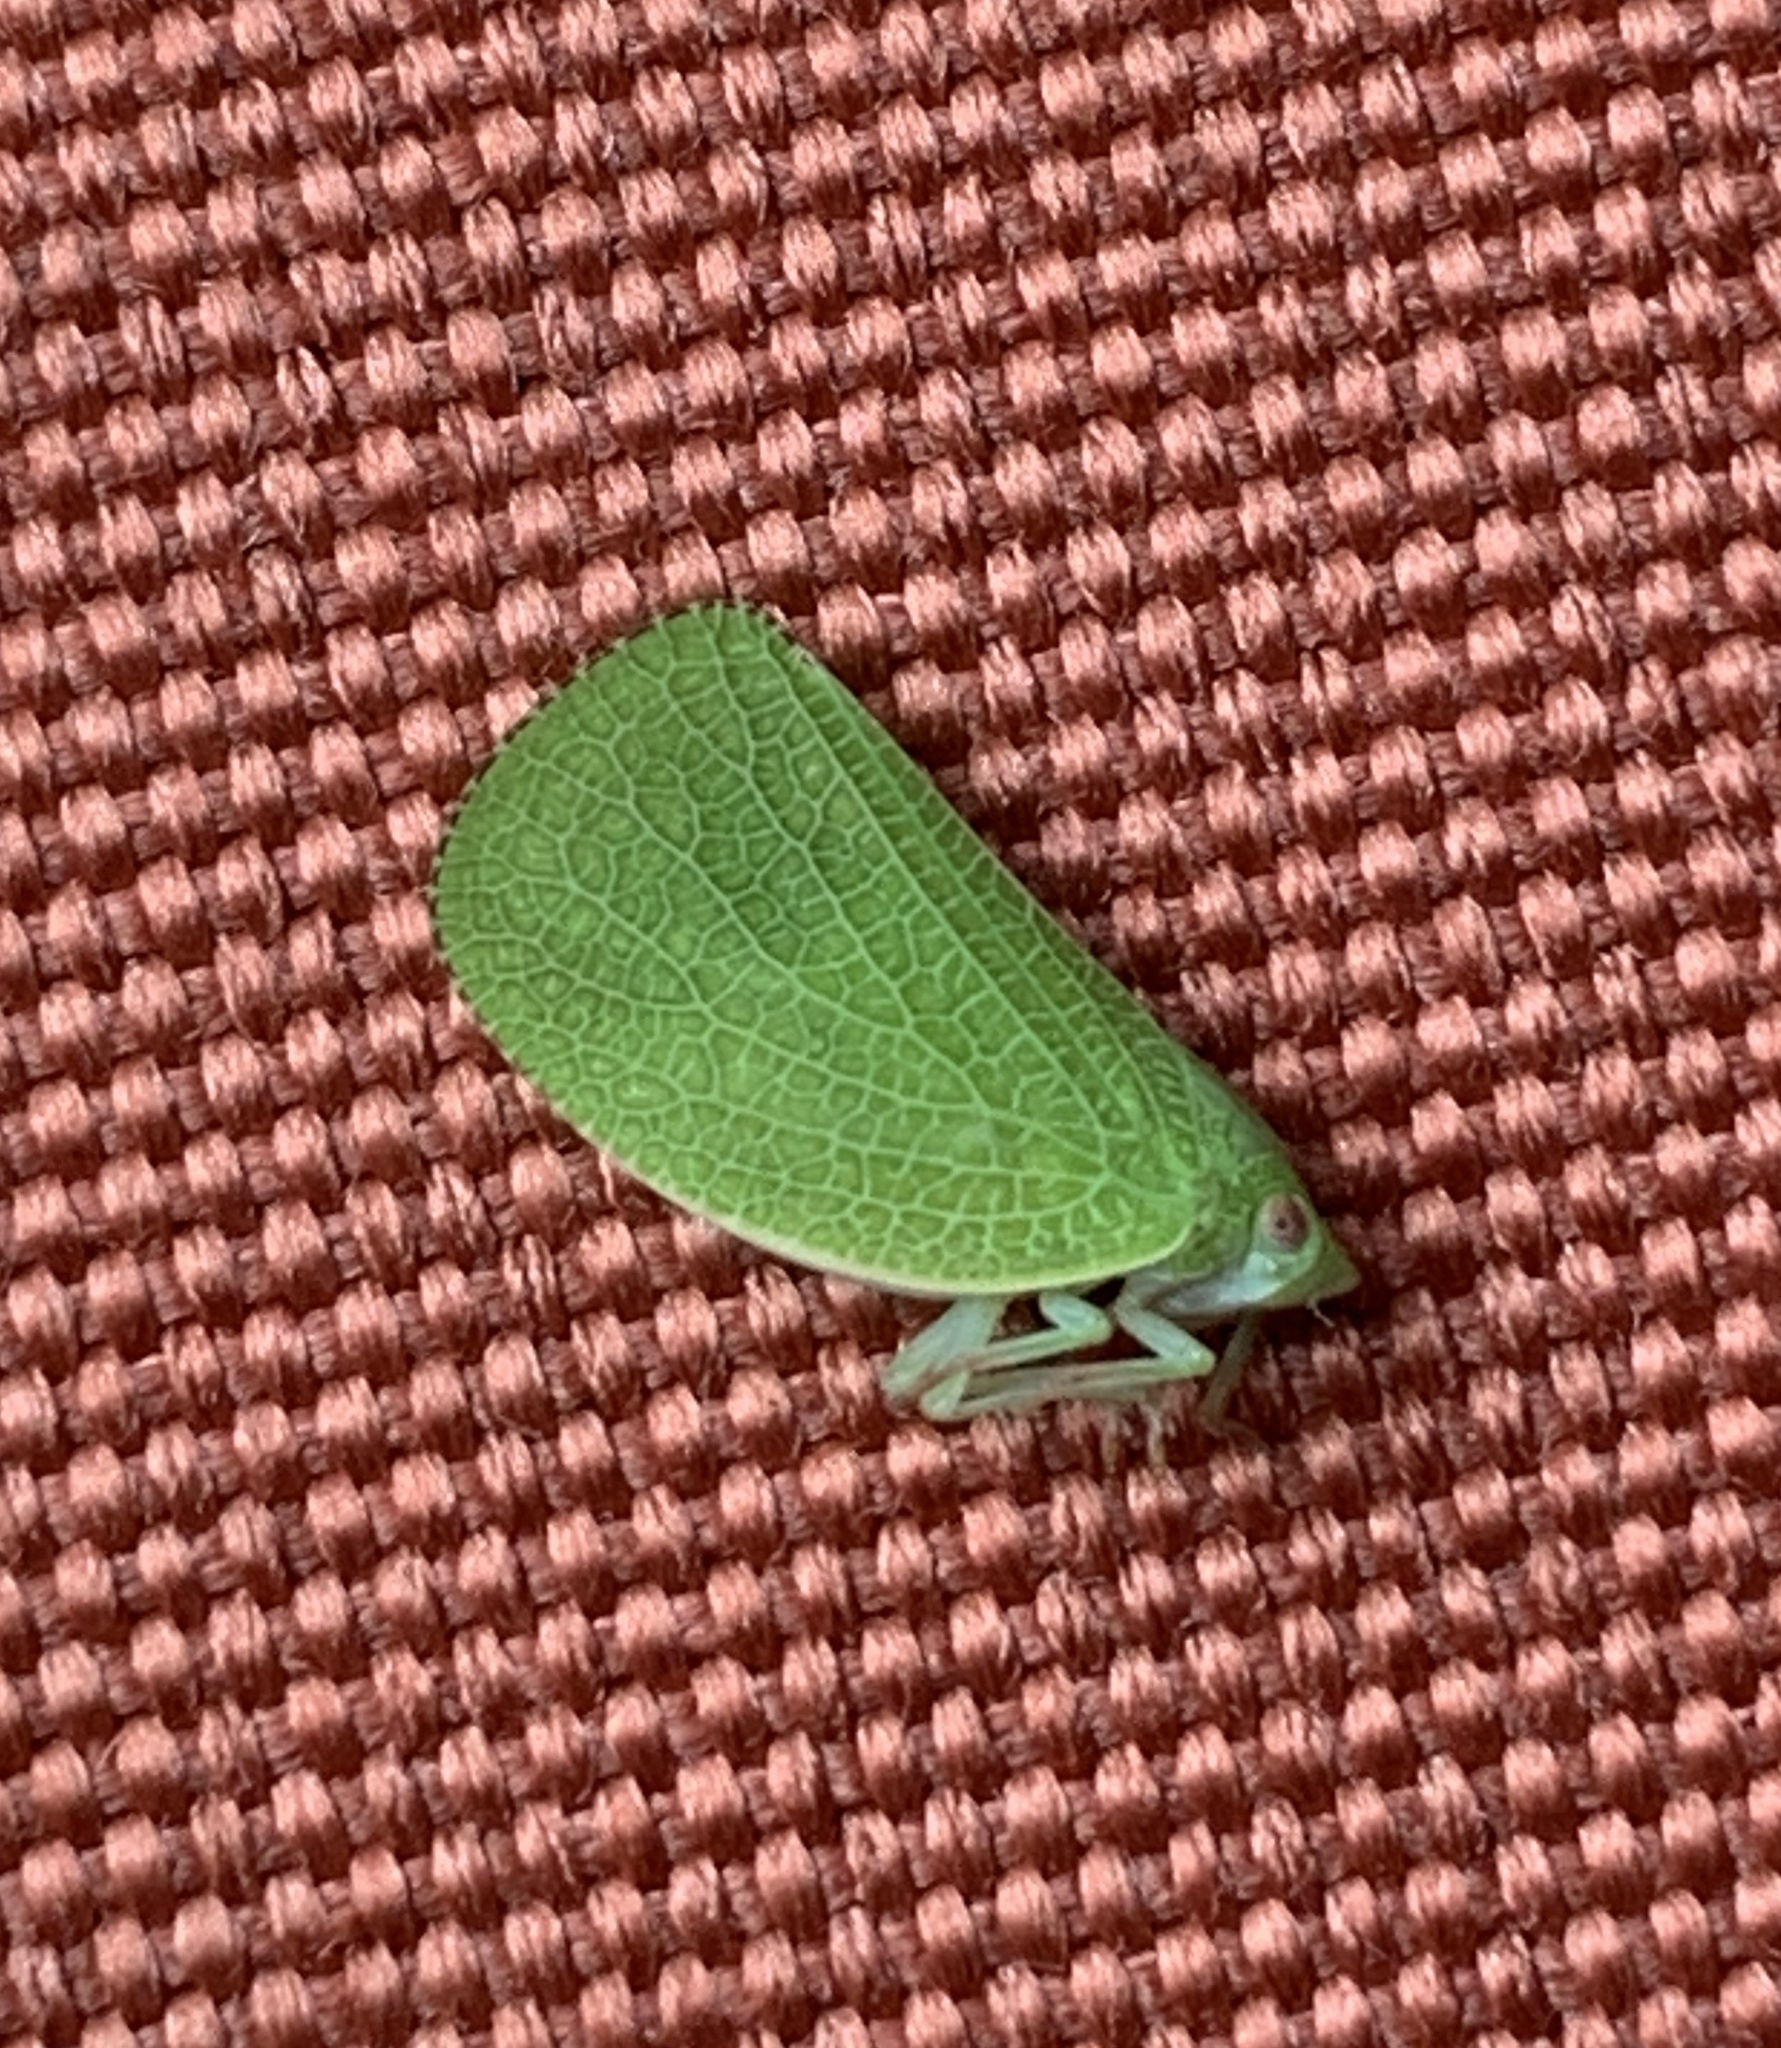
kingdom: Animalia
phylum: Arthropoda
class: Insecta
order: Hemiptera
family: Acanaloniidae
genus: Acanalonia
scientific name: Acanalonia conica
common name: Green cone-headed planthopper
